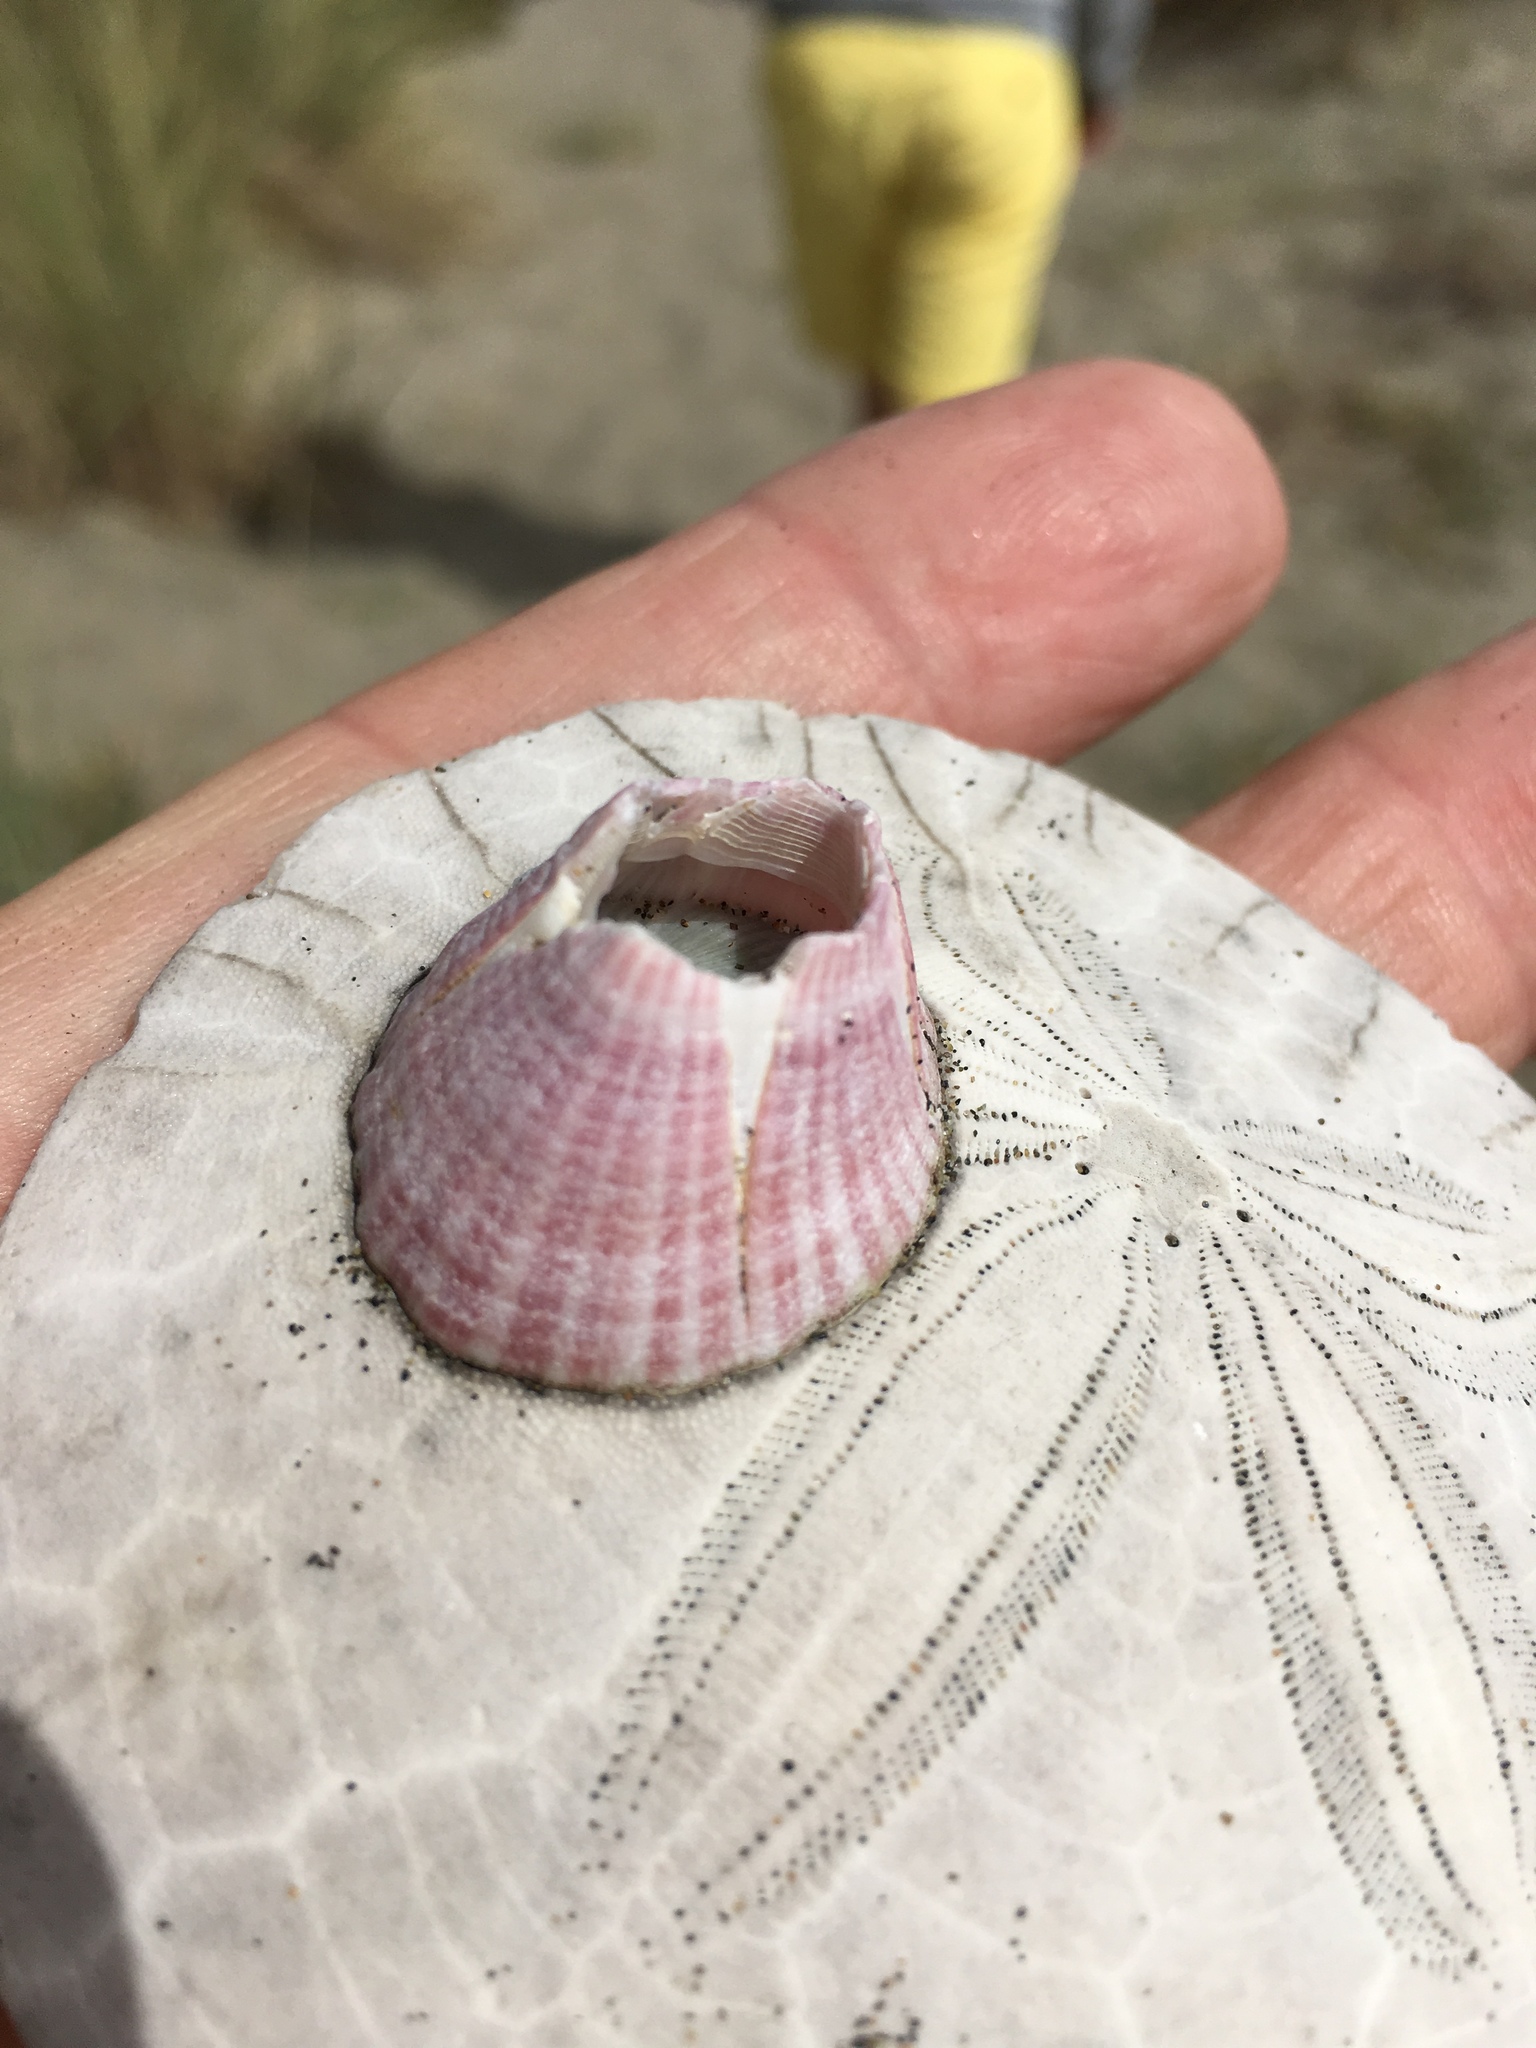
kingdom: Animalia
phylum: Arthropoda
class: Maxillopoda
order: Sessilia
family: Balanidae
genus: Paraconcavus
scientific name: Paraconcavus pacificus
